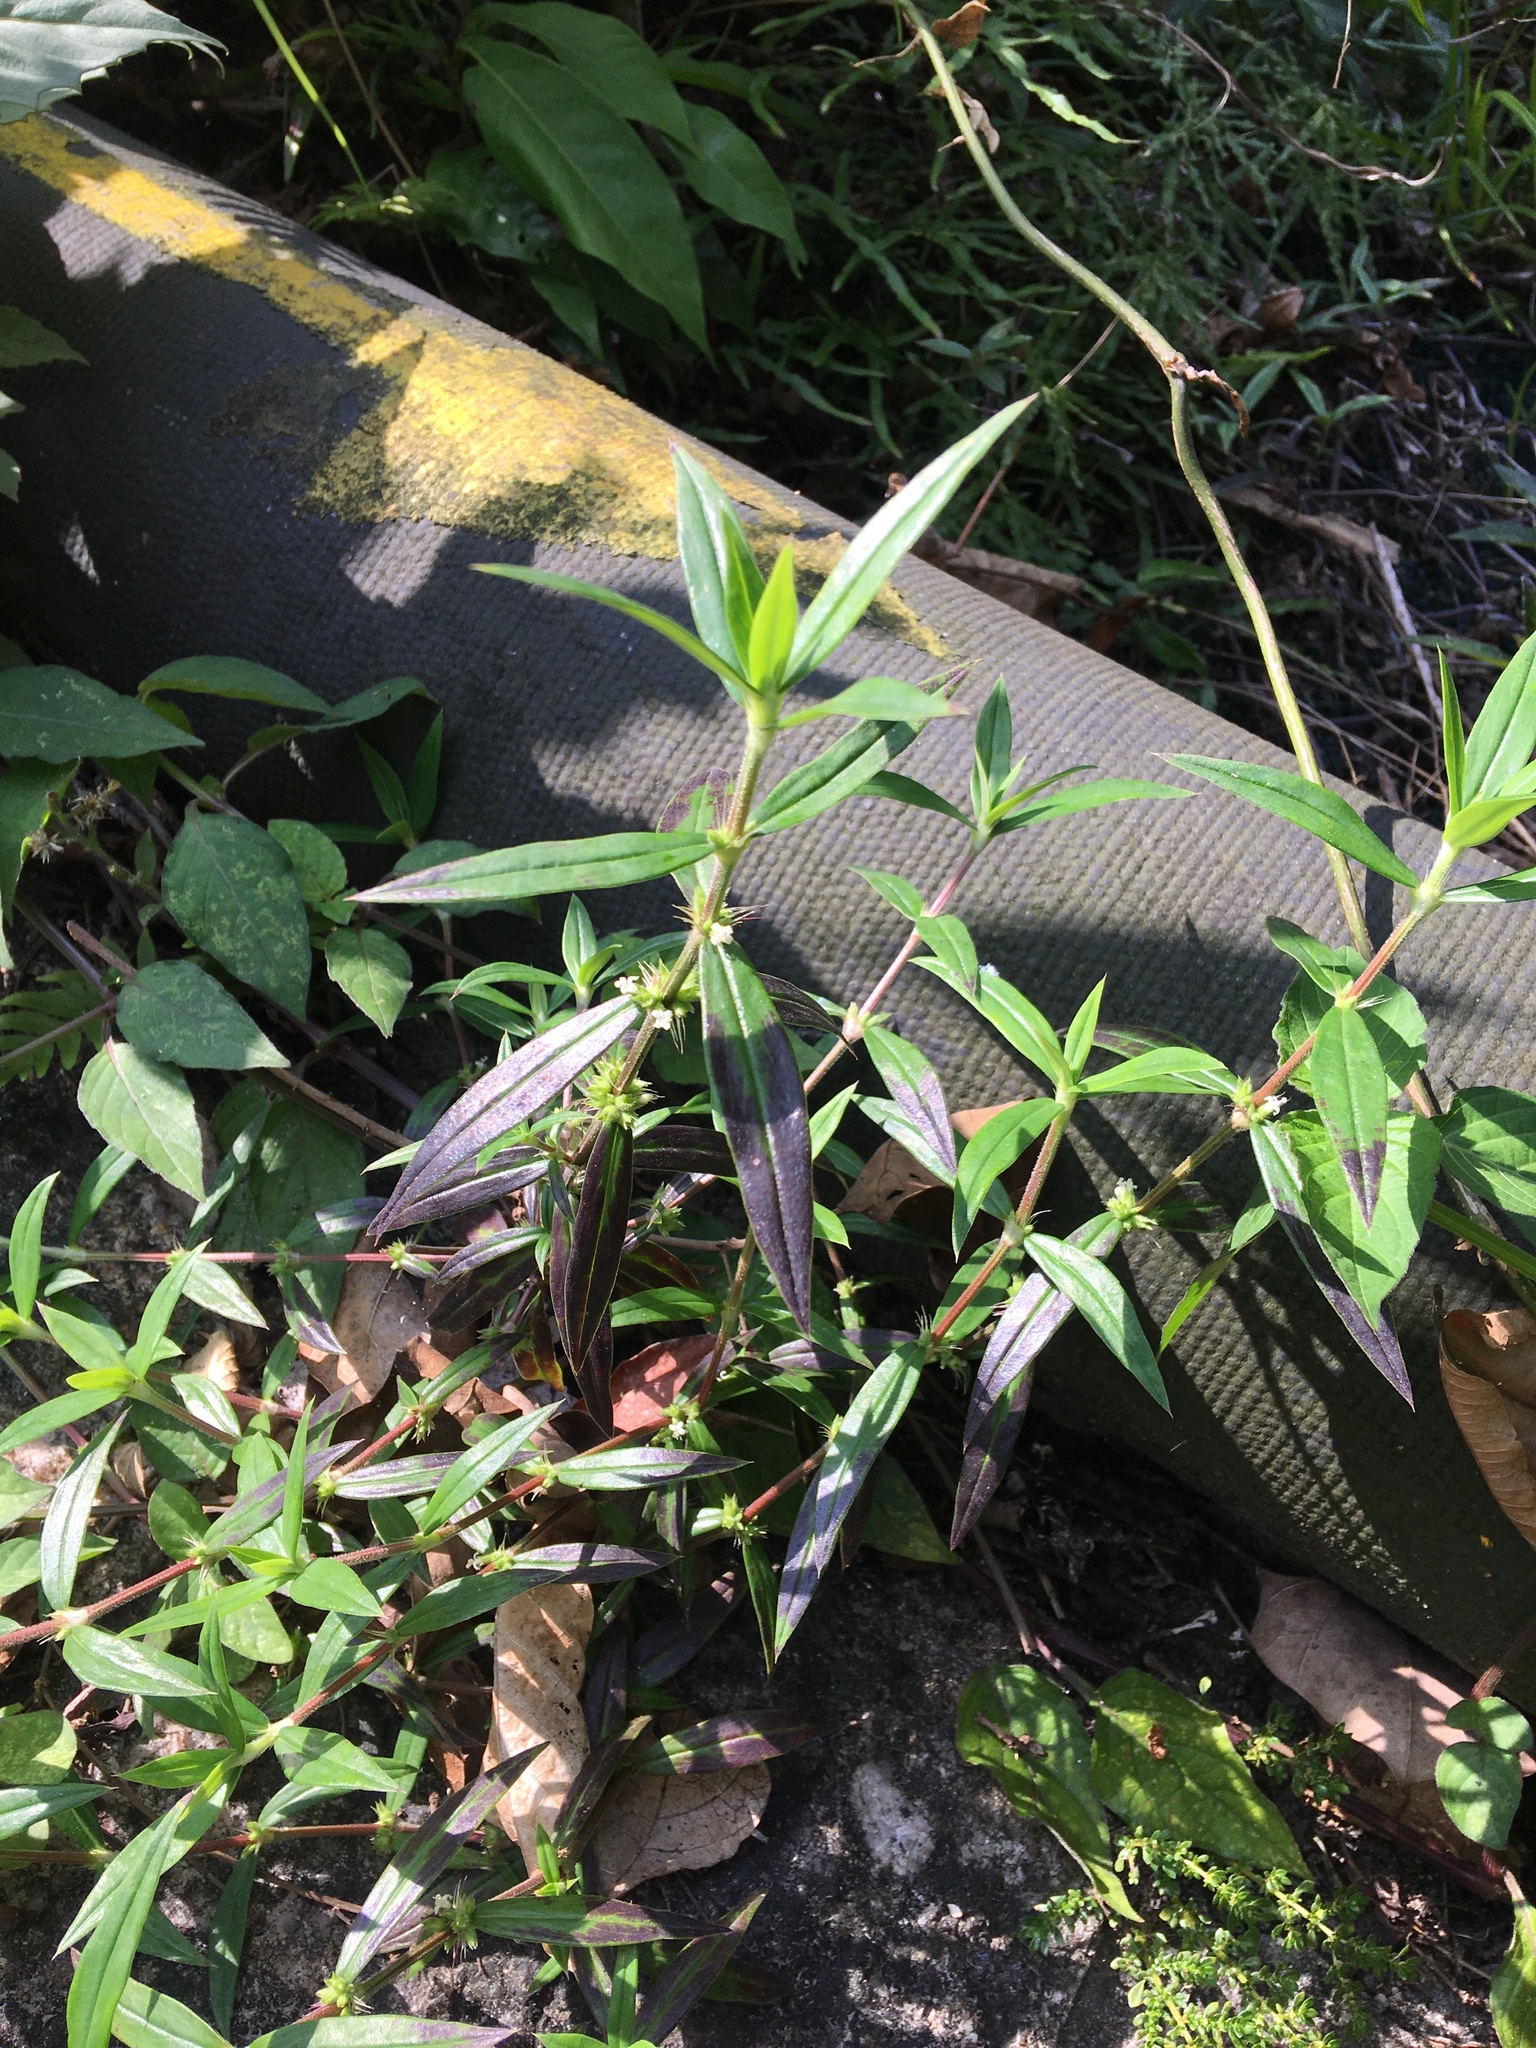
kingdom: Plantae
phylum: Tracheophyta
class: Magnoliopsida
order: Gentianales
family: Rubiaceae
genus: Spermacoce
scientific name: Spermacoce remota
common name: Woodland false buttonweed
